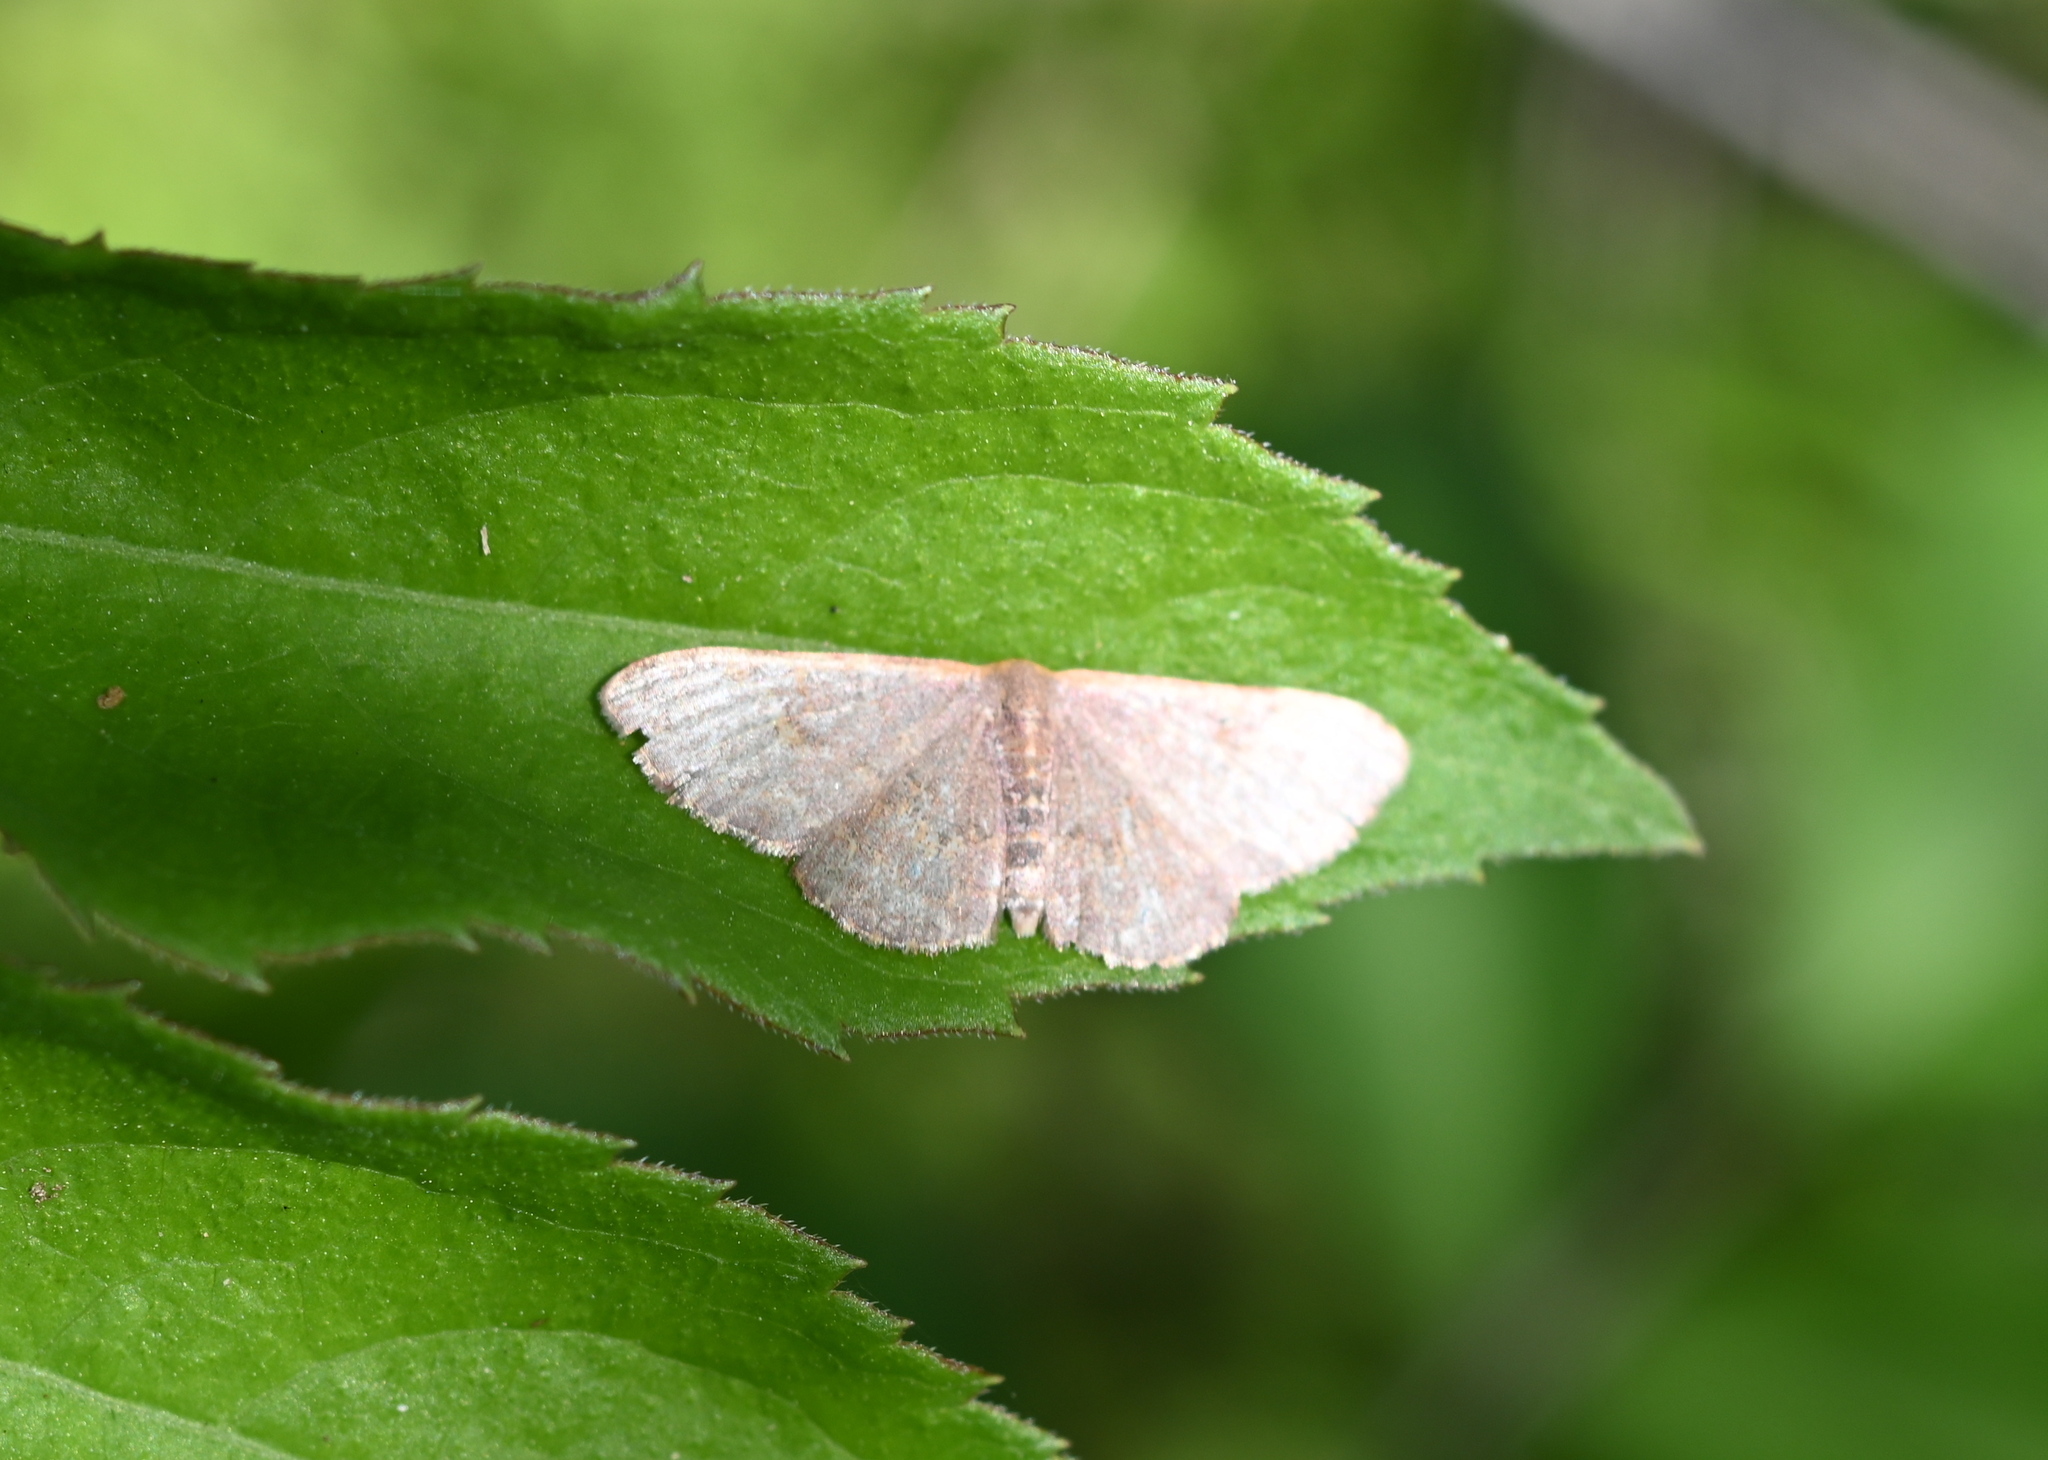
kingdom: Animalia
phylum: Arthropoda
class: Insecta
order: Lepidoptera
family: Geometridae
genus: Leptostales
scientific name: Leptostales pannaria
